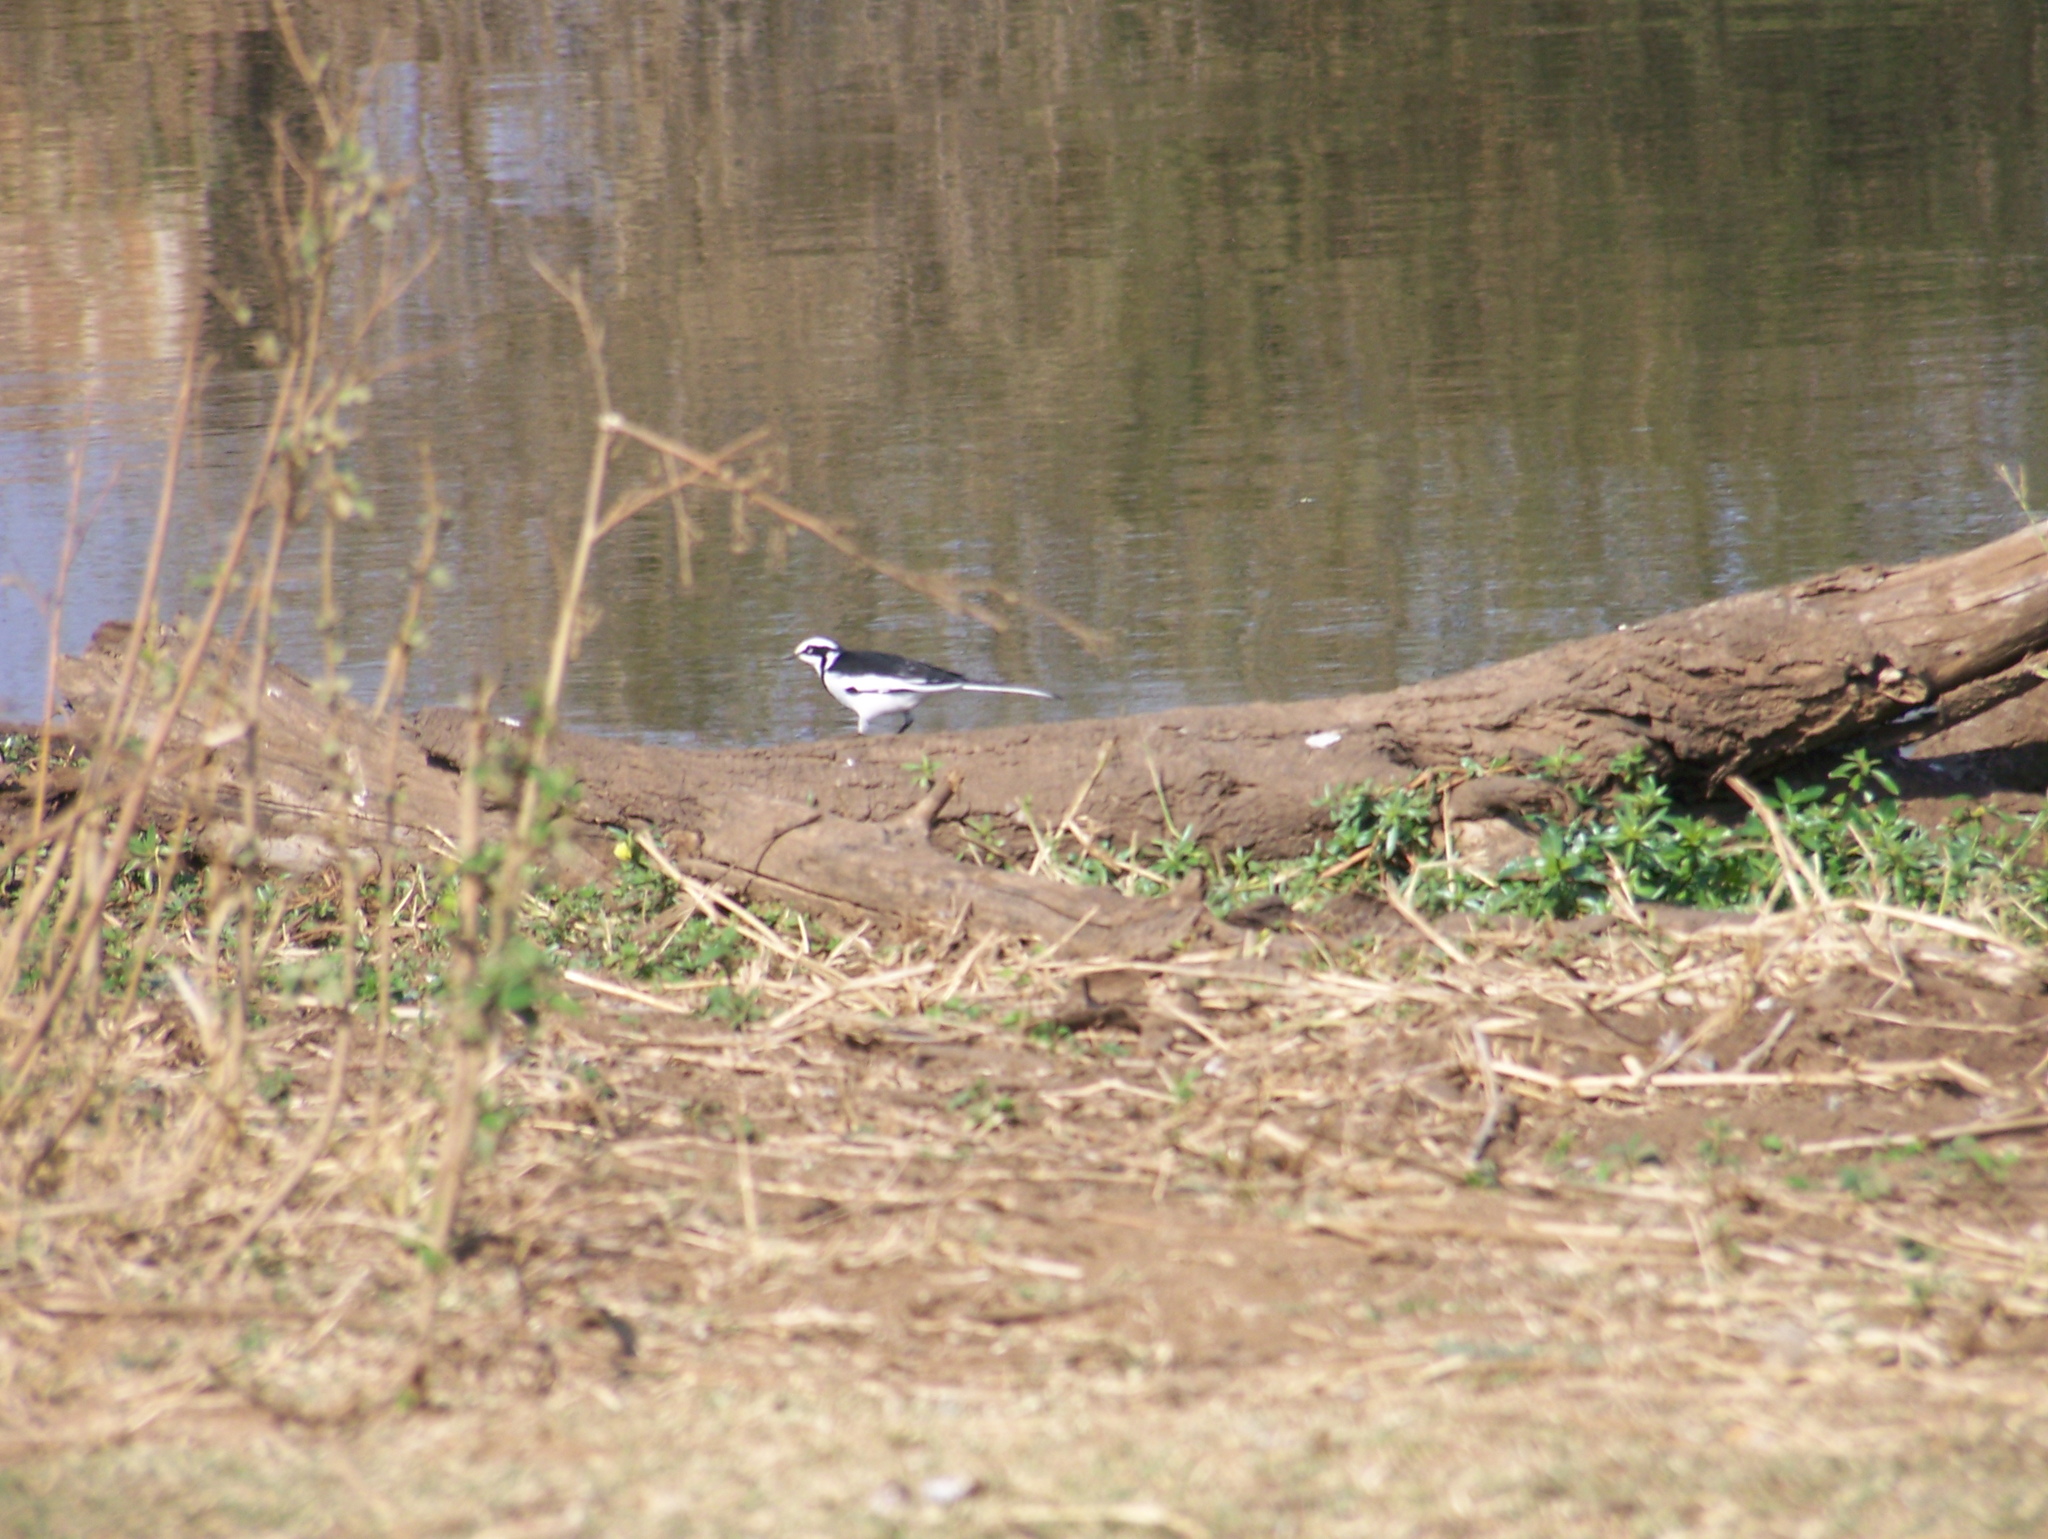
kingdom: Animalia
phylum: Chordata
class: Aves
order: Passeriformes
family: Motacillidae
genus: Motacilla
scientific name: Motacilla aguimp
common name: African pied wagtail
